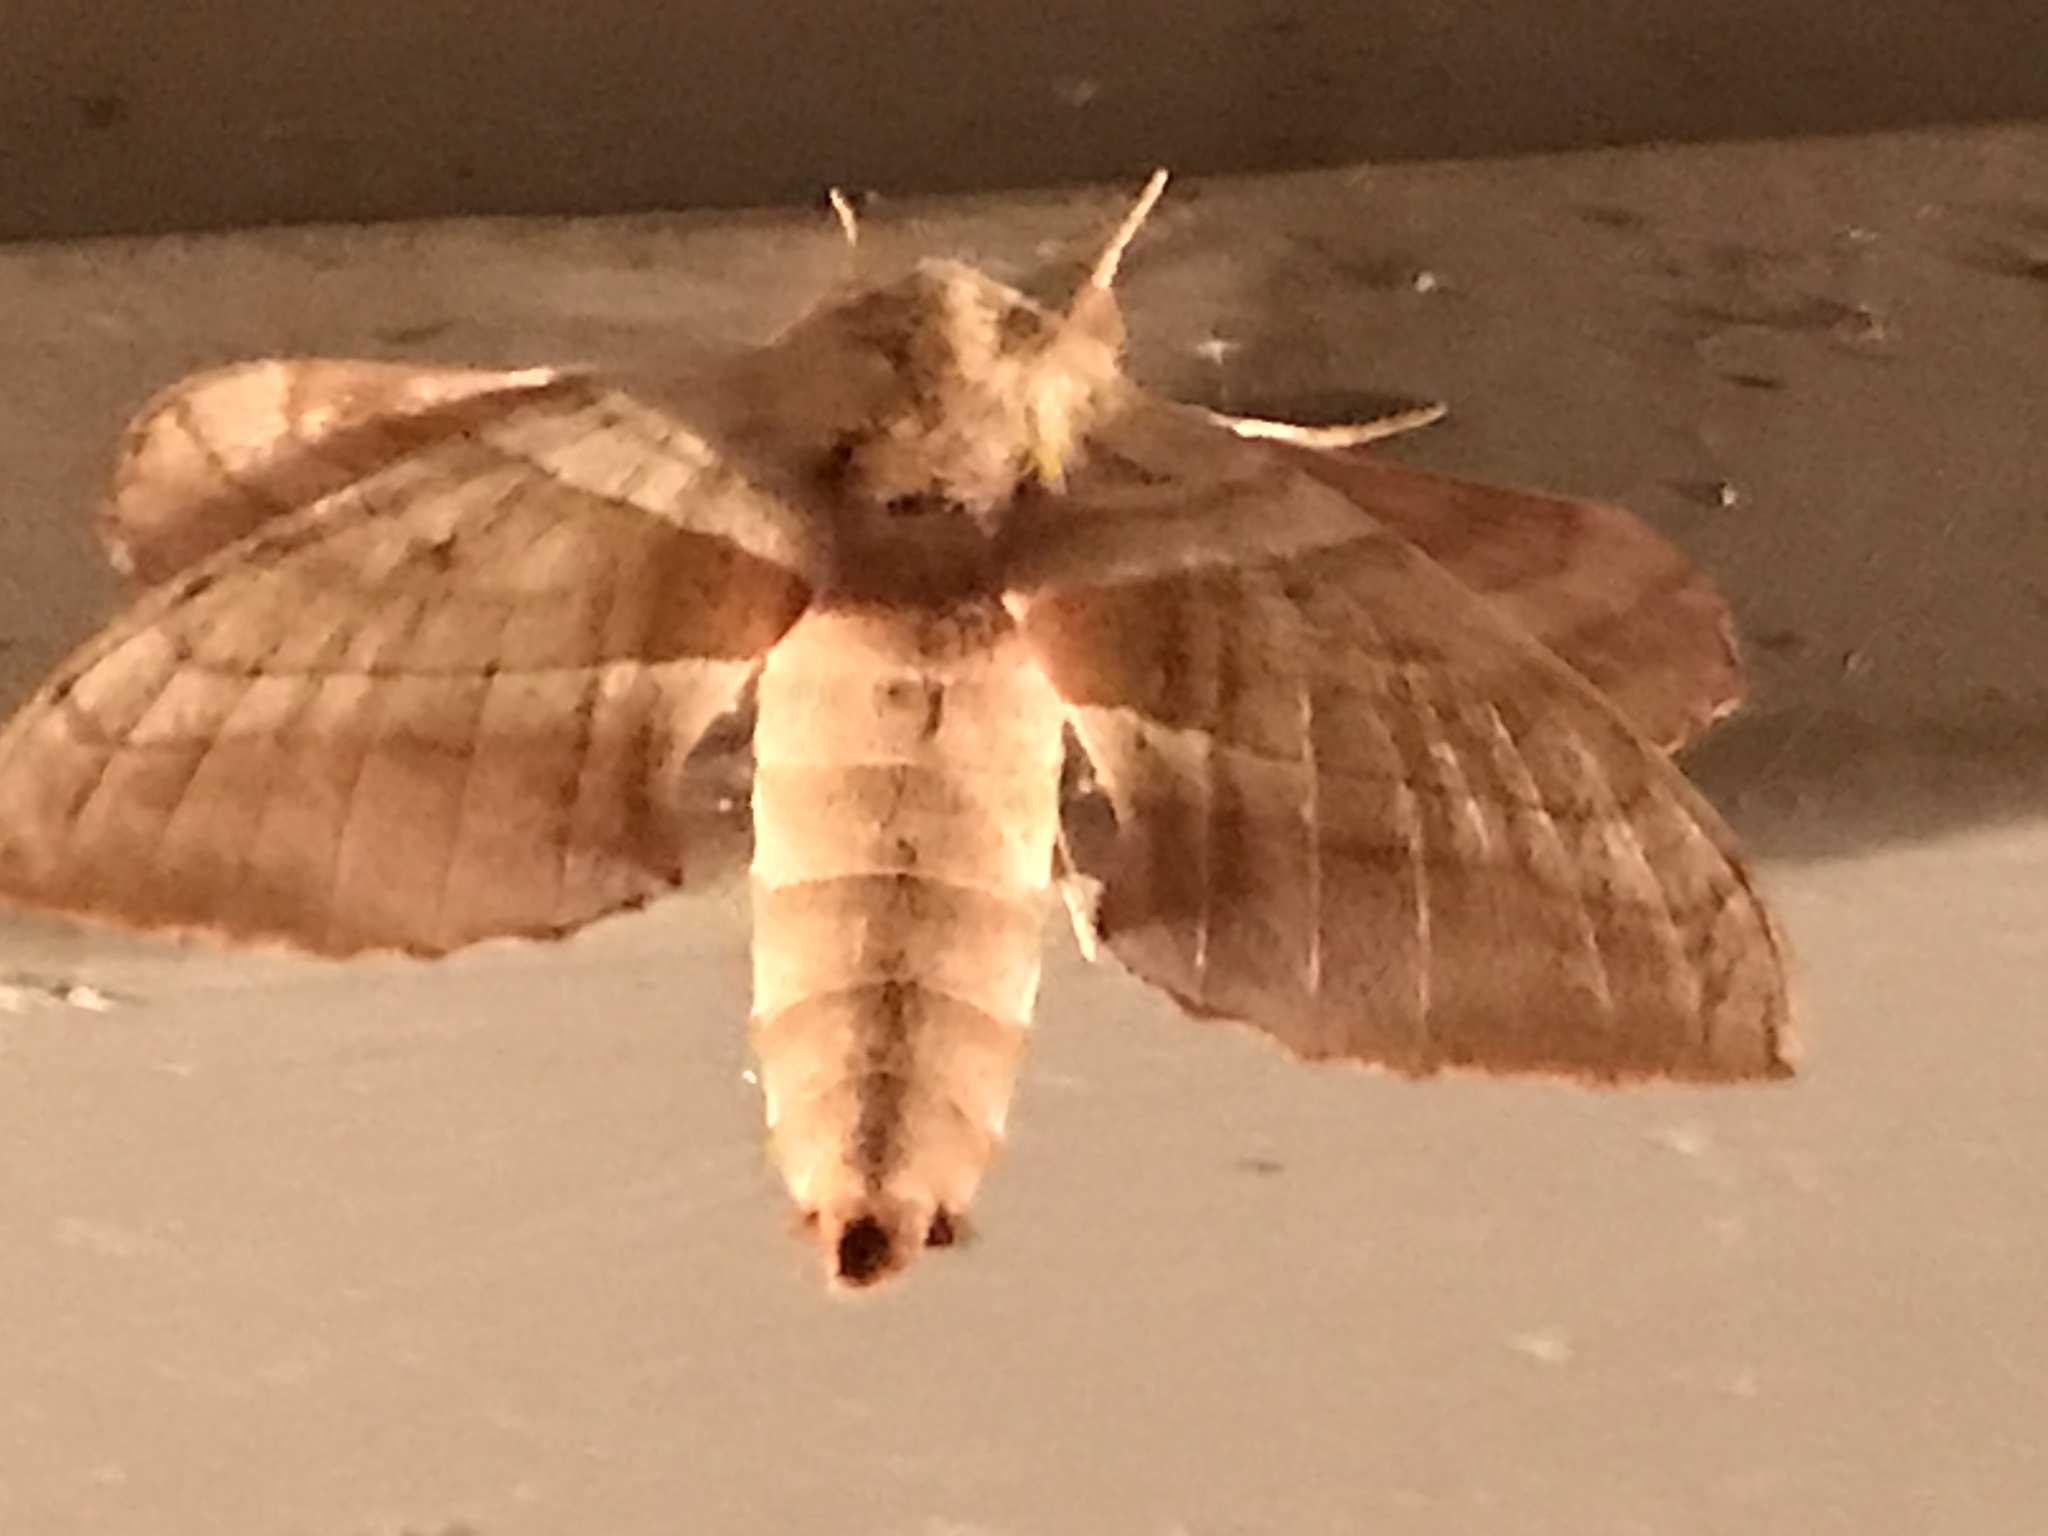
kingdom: Animalia
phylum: Arthropoda
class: Insecta
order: Lepidoptera
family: Sphingidae
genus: Amorpha
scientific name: Amorpha juglandis
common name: Walnut sphinx
